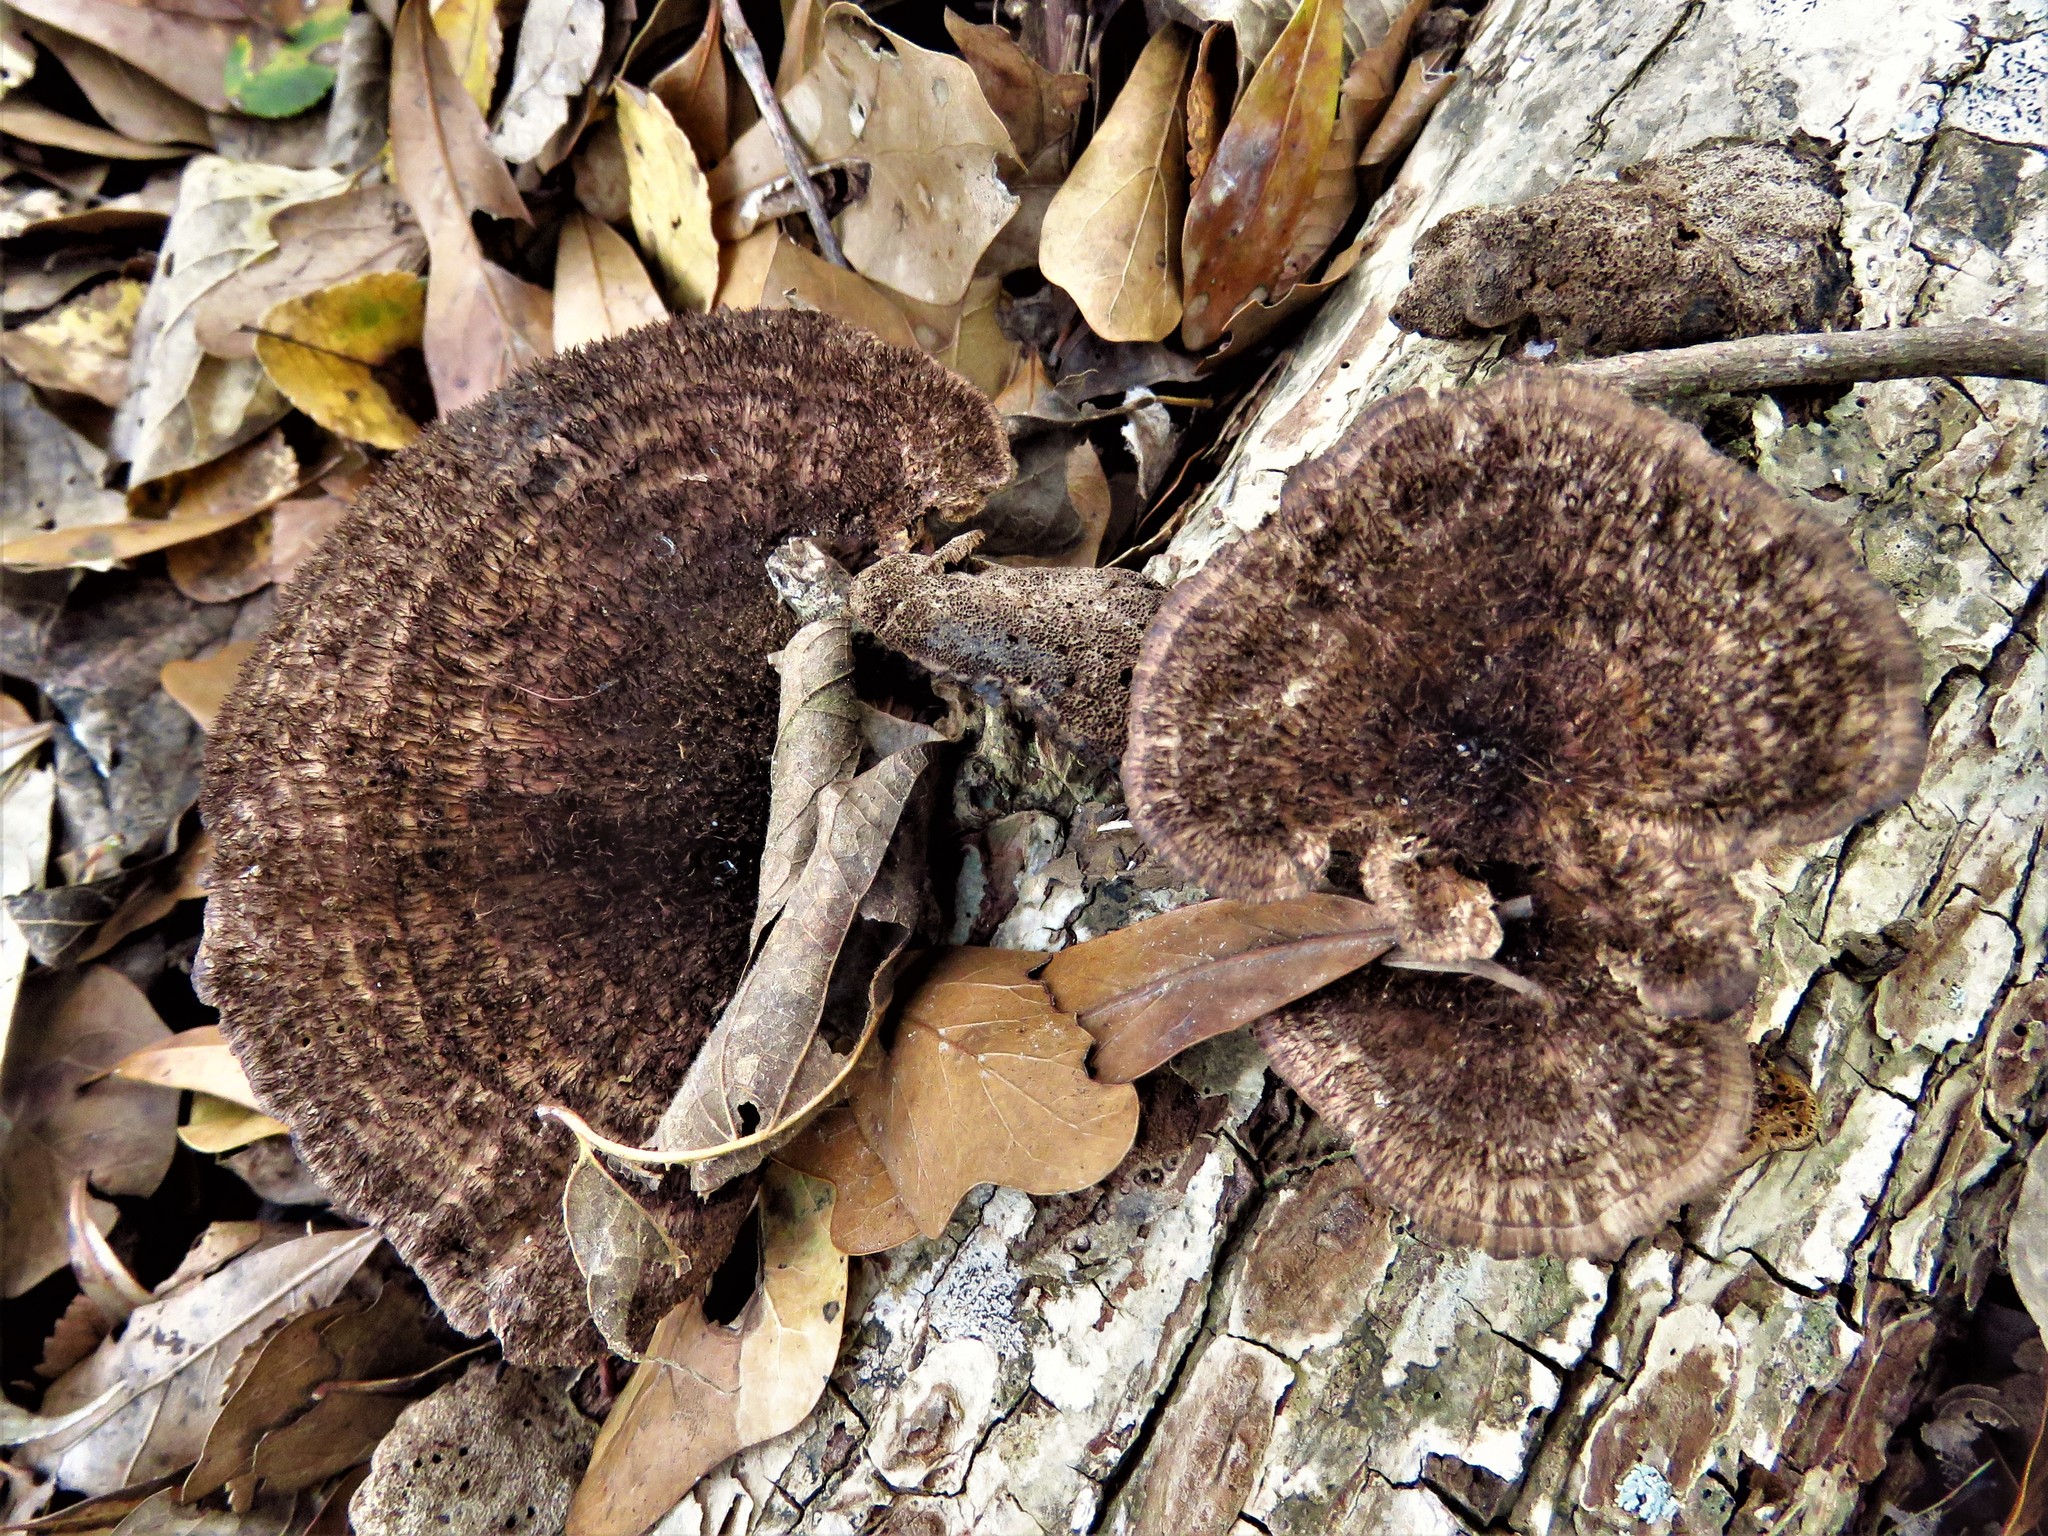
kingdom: Fungi
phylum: Basidiomycota
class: Agaricomycetes
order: Polyporales
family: Cerrenaceae
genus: Cerrena
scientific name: Cerrena hydnoides
